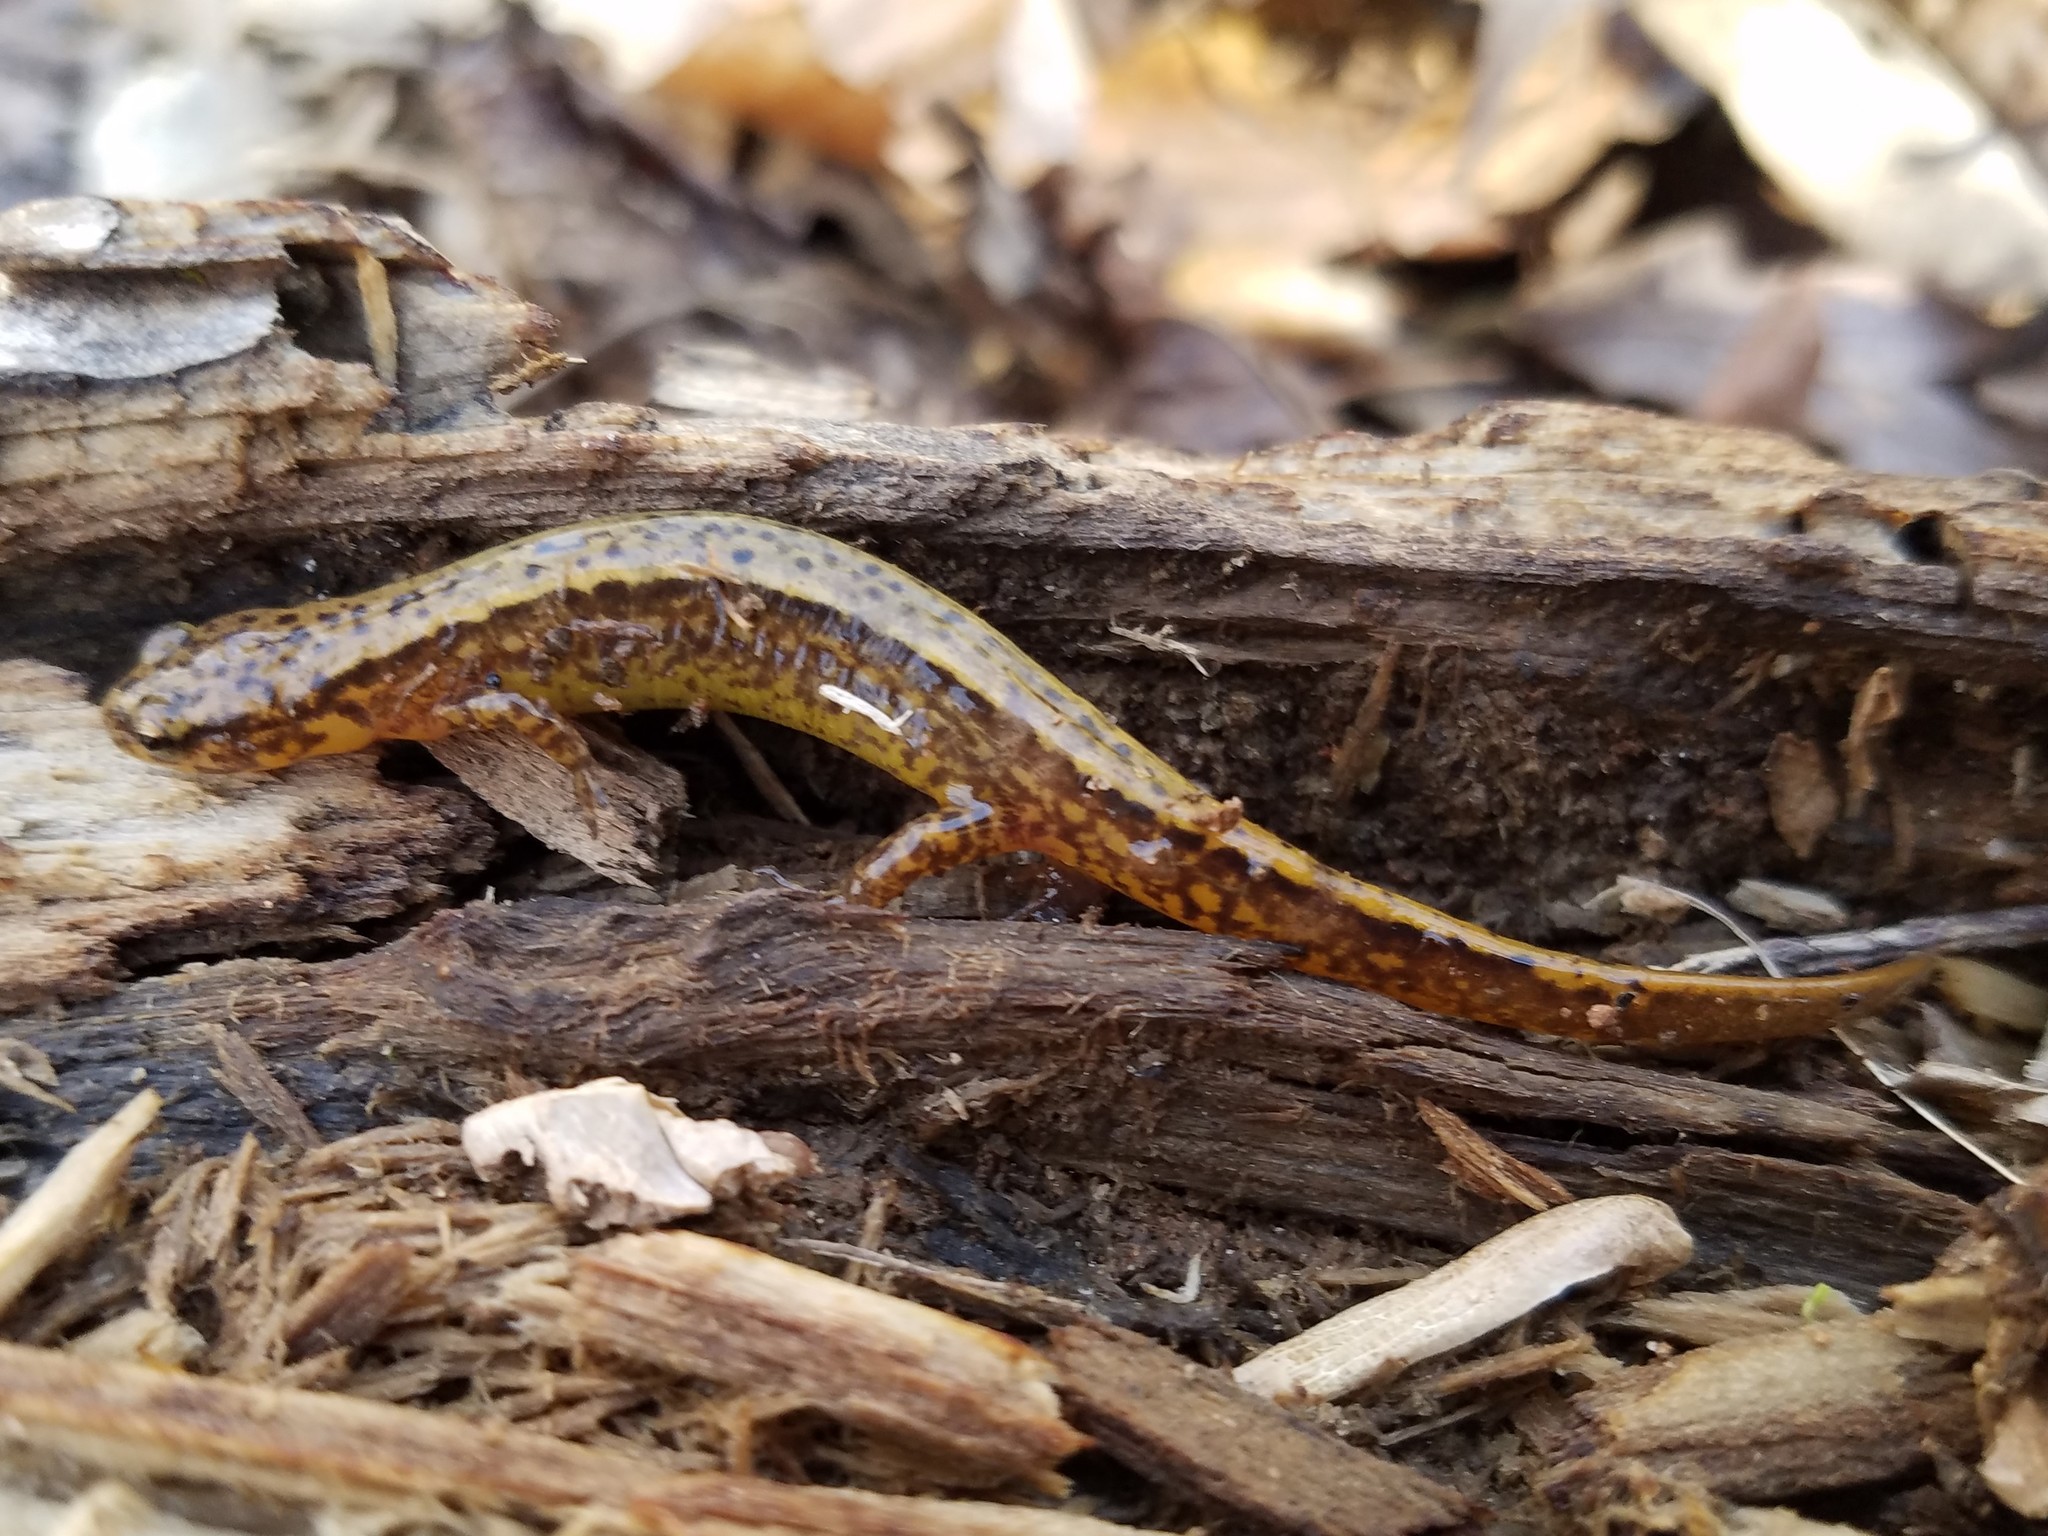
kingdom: Animalia
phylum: Chordata
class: Amphibia
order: Caudata
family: Plethodontidae
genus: Eurycea
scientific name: Eurycea cirrigera
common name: Southern two-lined salamander
